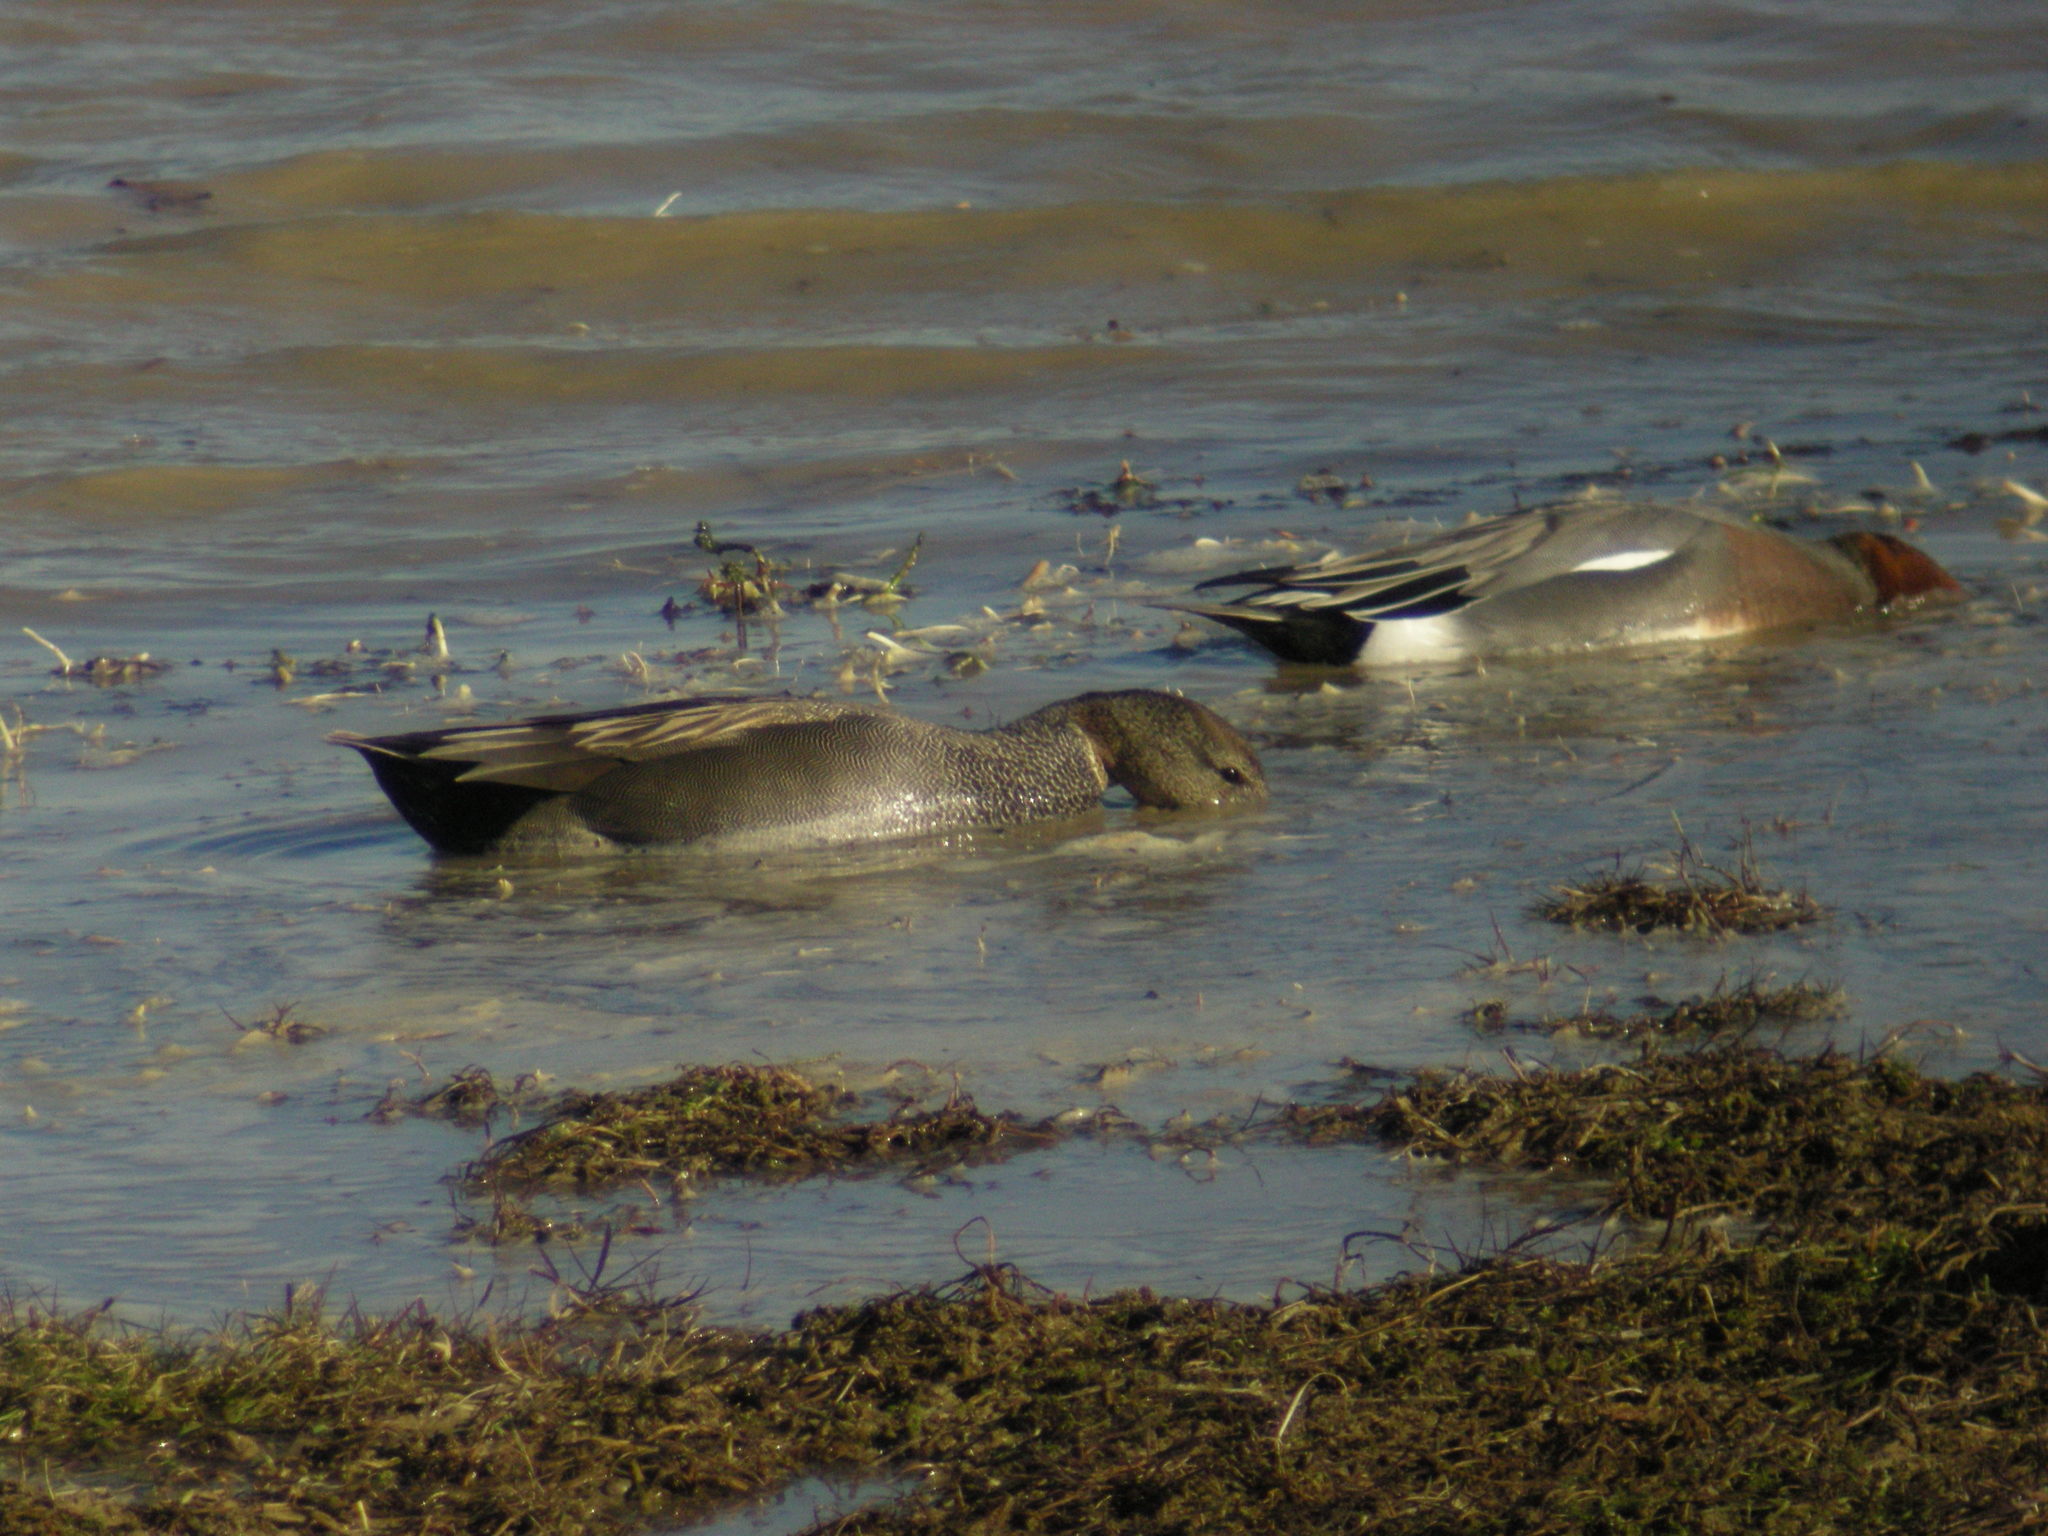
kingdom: Animalia
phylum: Chordata
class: Aves
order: Anseriformes
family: Anatidae
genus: Mareca
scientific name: Mareca strepera
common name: Gadwall
